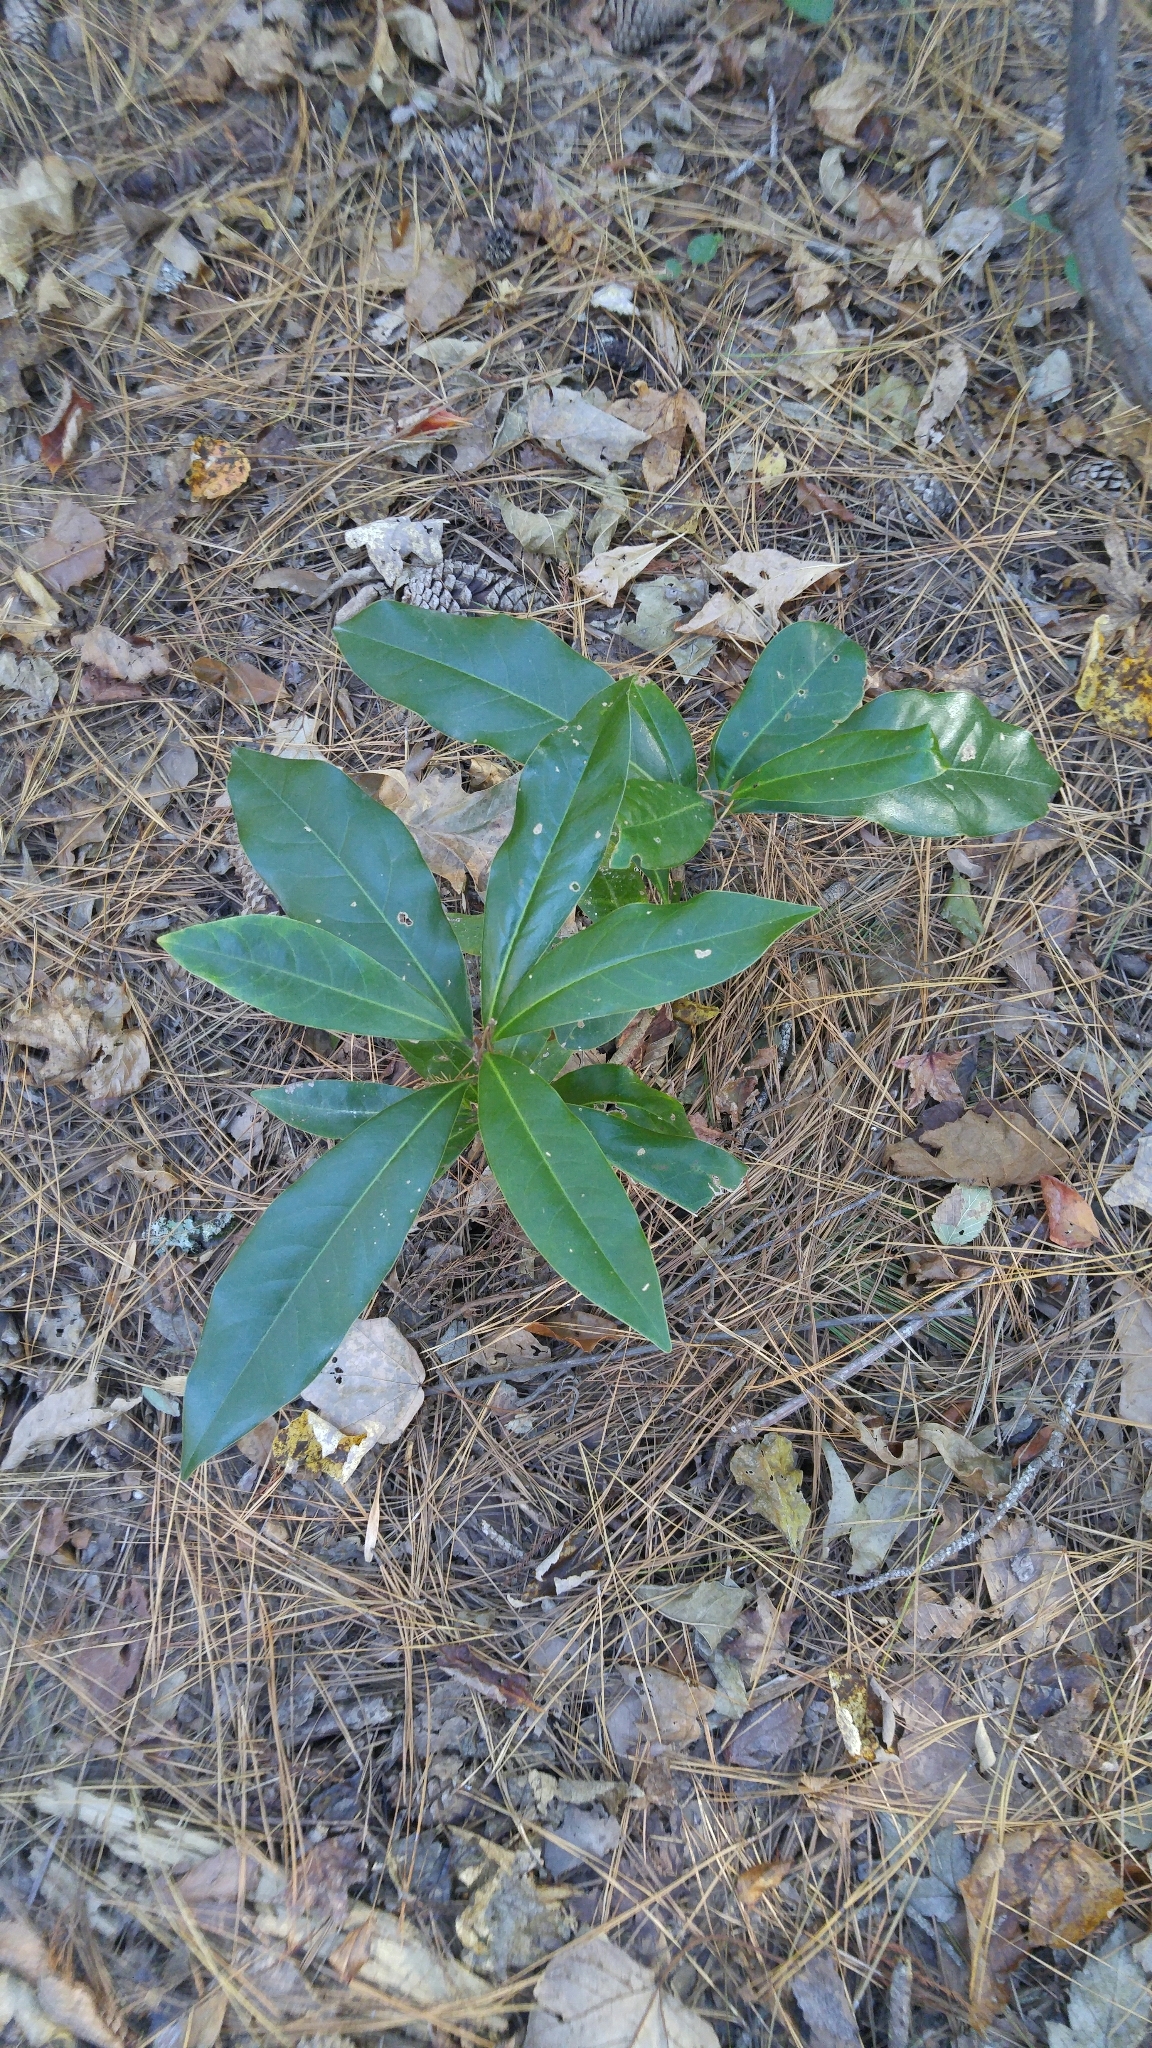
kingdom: Plantae
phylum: Tracheophyta
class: Magnoliopsida
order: Magnoliales
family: Magnoliaceae
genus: Magnolia
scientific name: Magnolia grandiflora
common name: Southern magnolia
